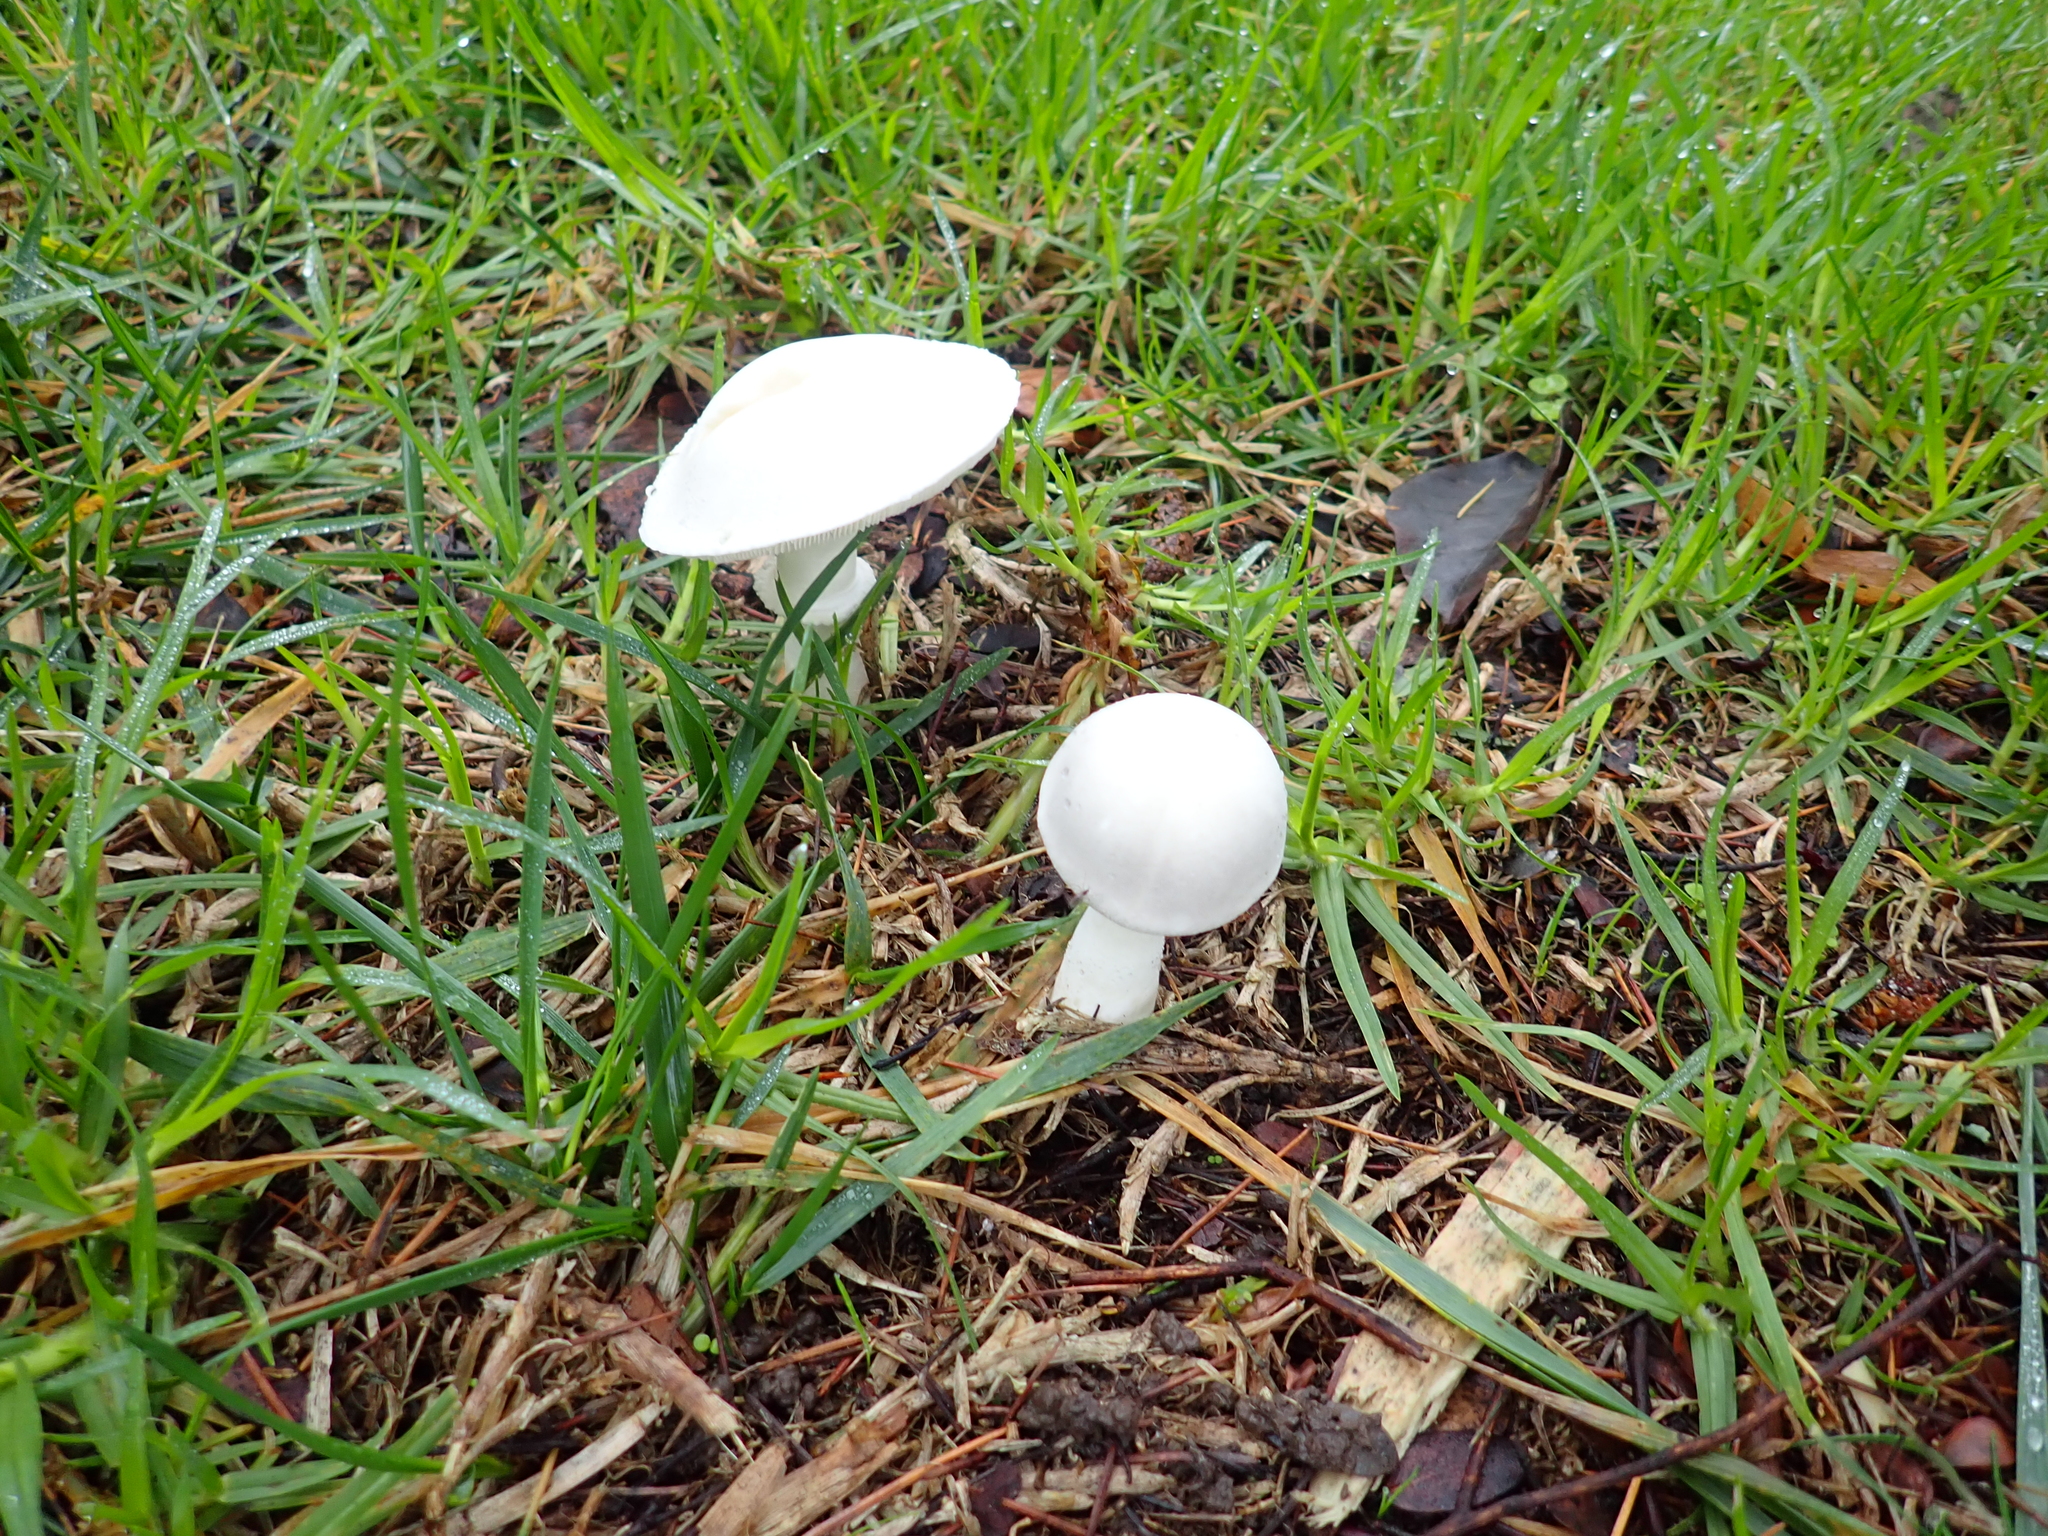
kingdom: Fungi
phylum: Basidiomycota
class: Agaricomycetes
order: Agaricales
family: Agaricaceae
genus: Leucoagaricus
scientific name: Leucoagaricus leucothites
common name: White dapperling
